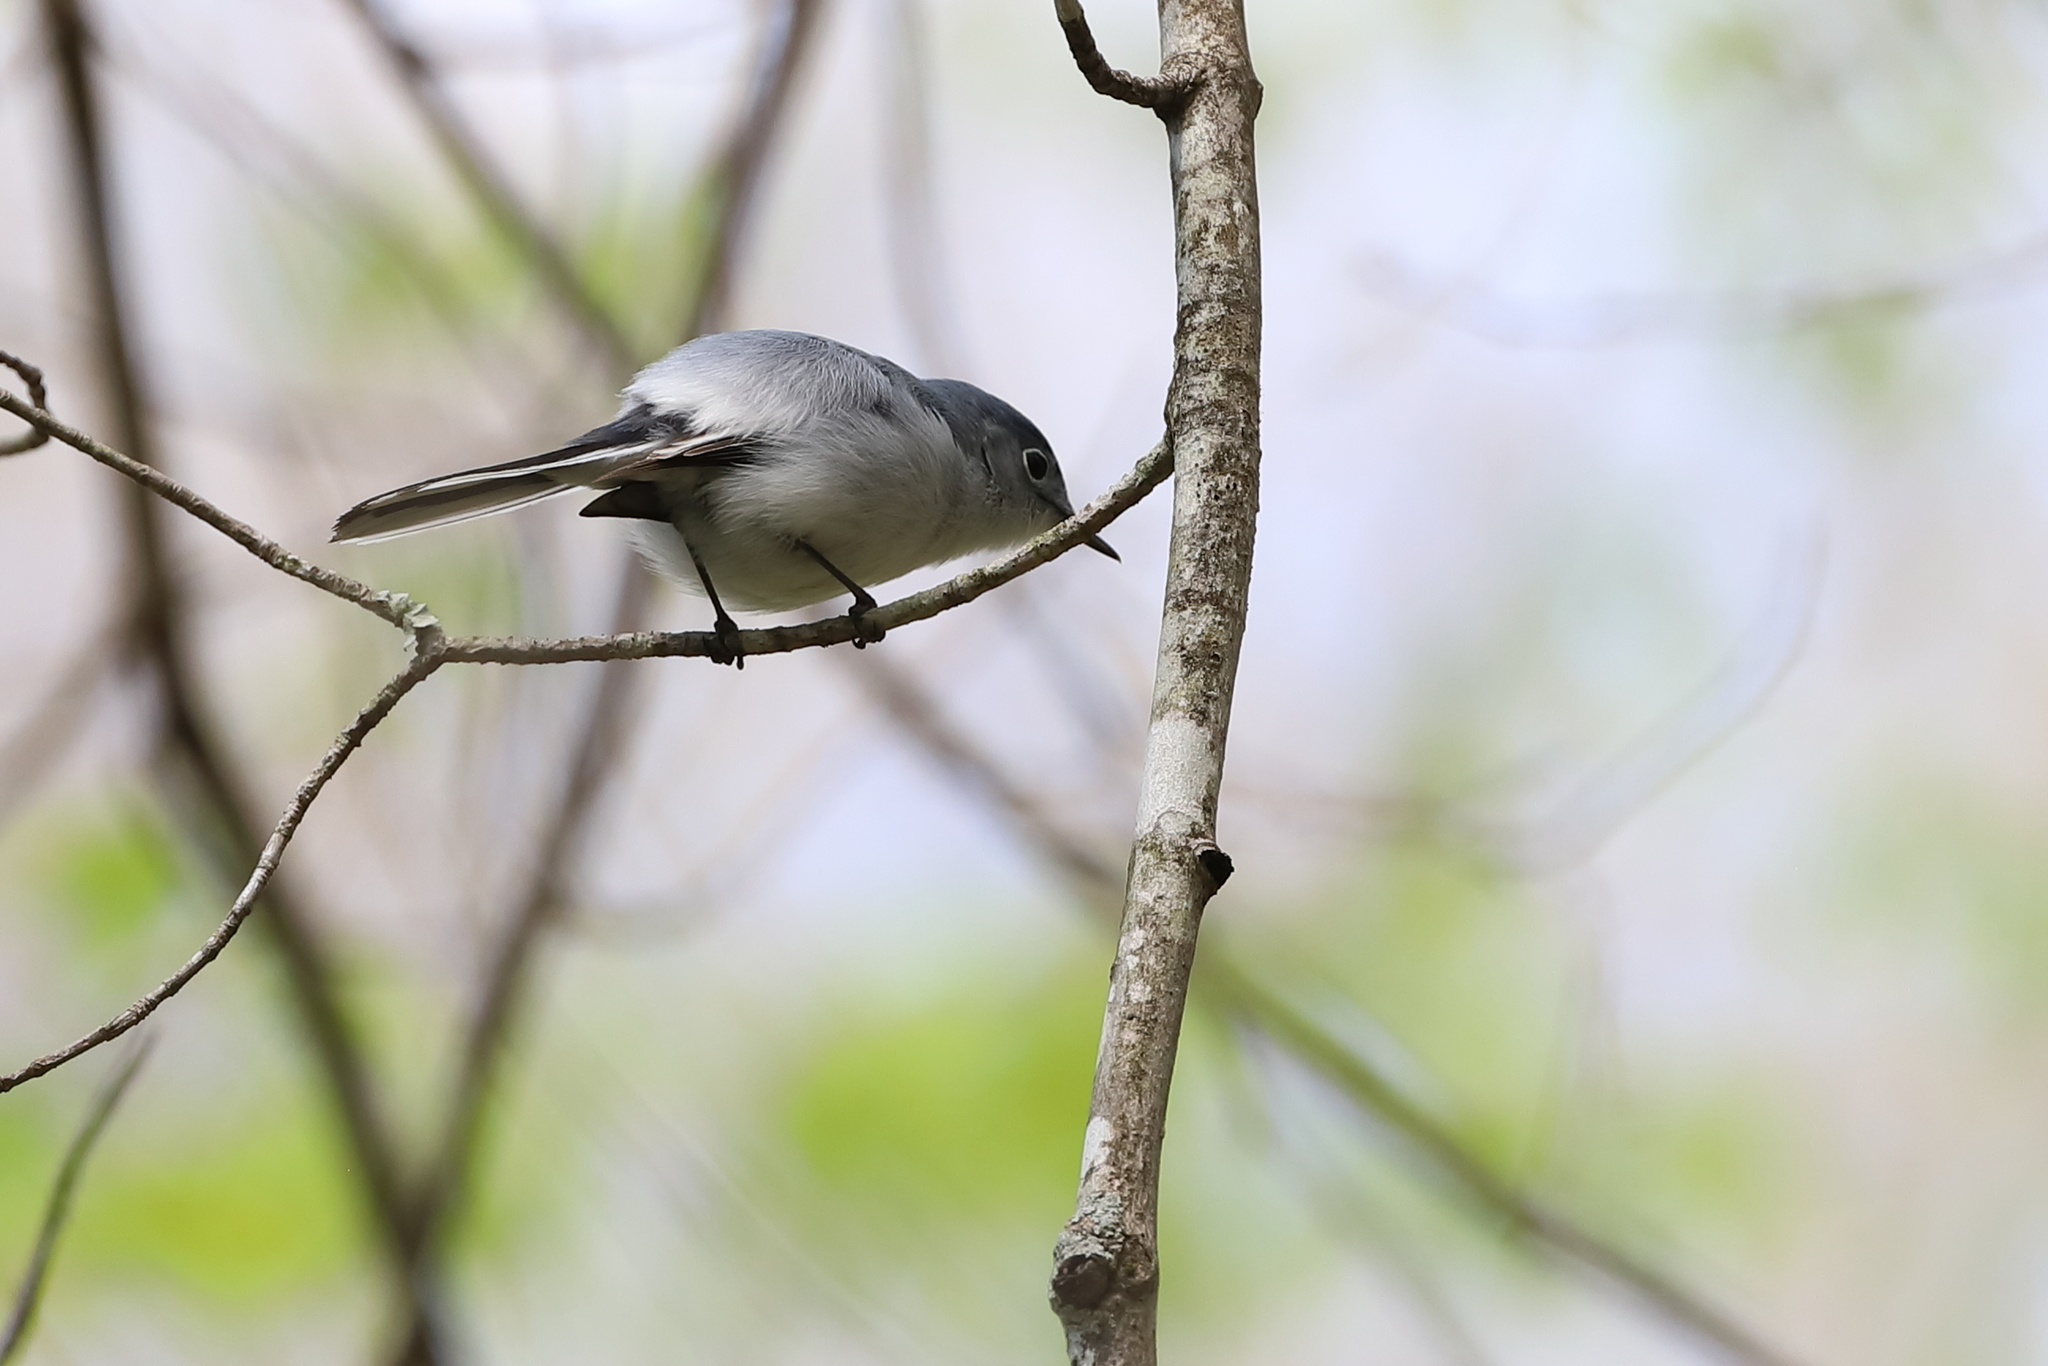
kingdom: Animalia
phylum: Chordata
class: Aves
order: Passeriformes
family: Polioptilidae
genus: Polioptila
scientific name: Polioptila caerulea
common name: Blue-gray gnatcatcher
